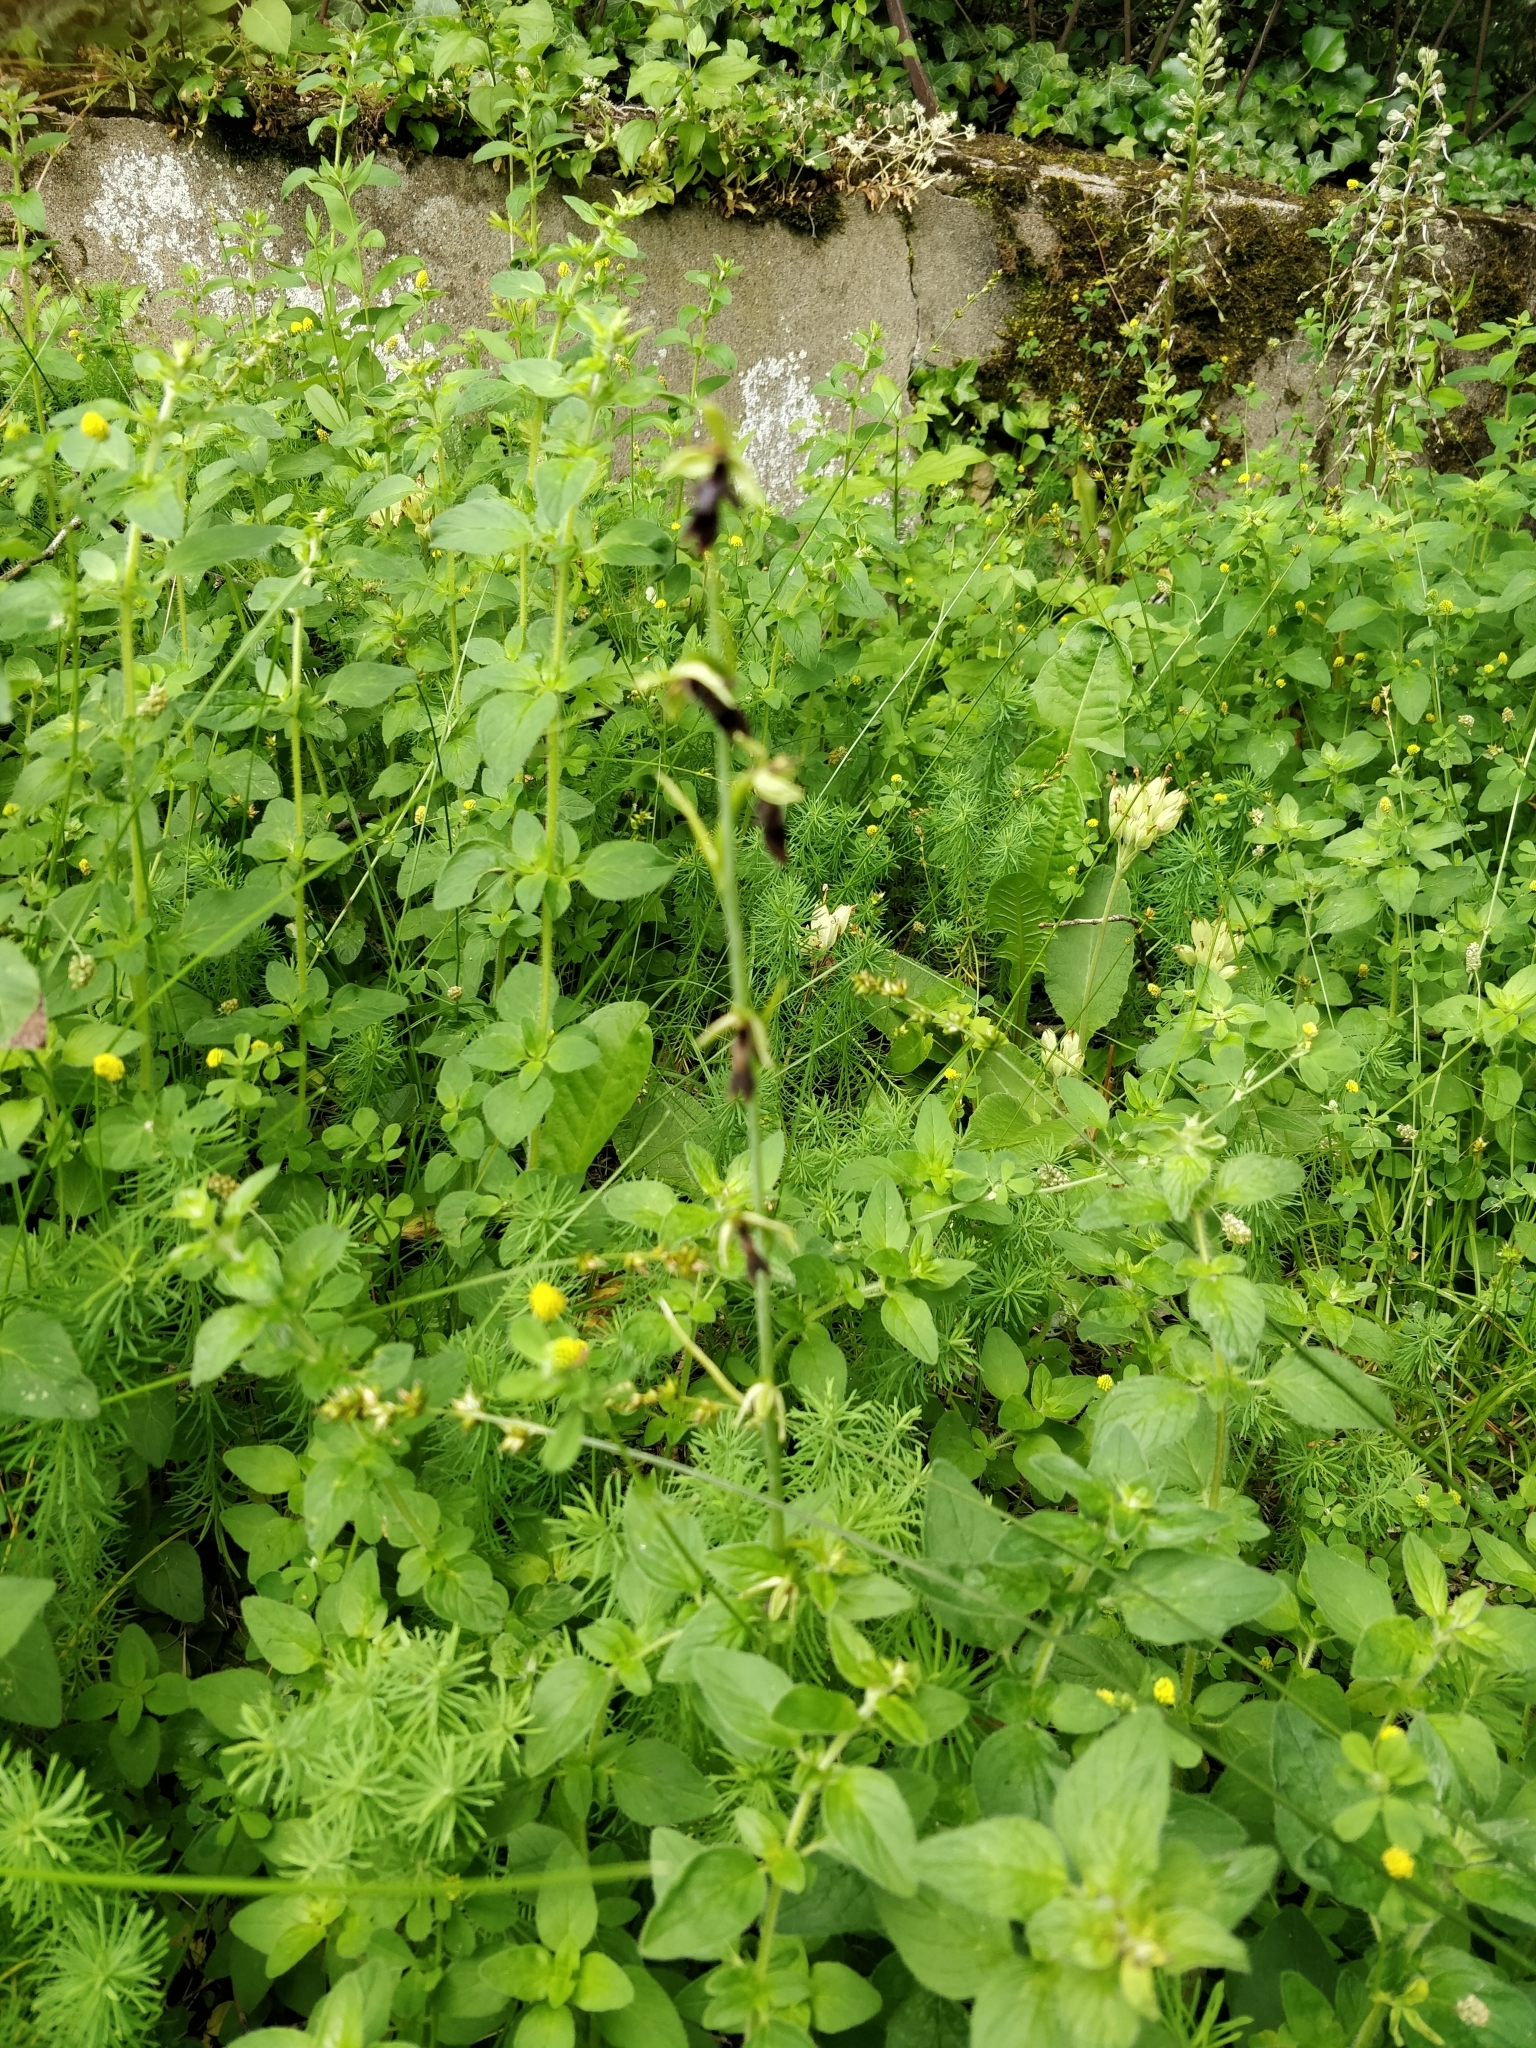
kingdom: Plantae
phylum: Tracheophyta
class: Liliopsida
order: Asparagales
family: Orchidaceae
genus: Ophrys
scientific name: Ophrys insectifera
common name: Fly orchid
